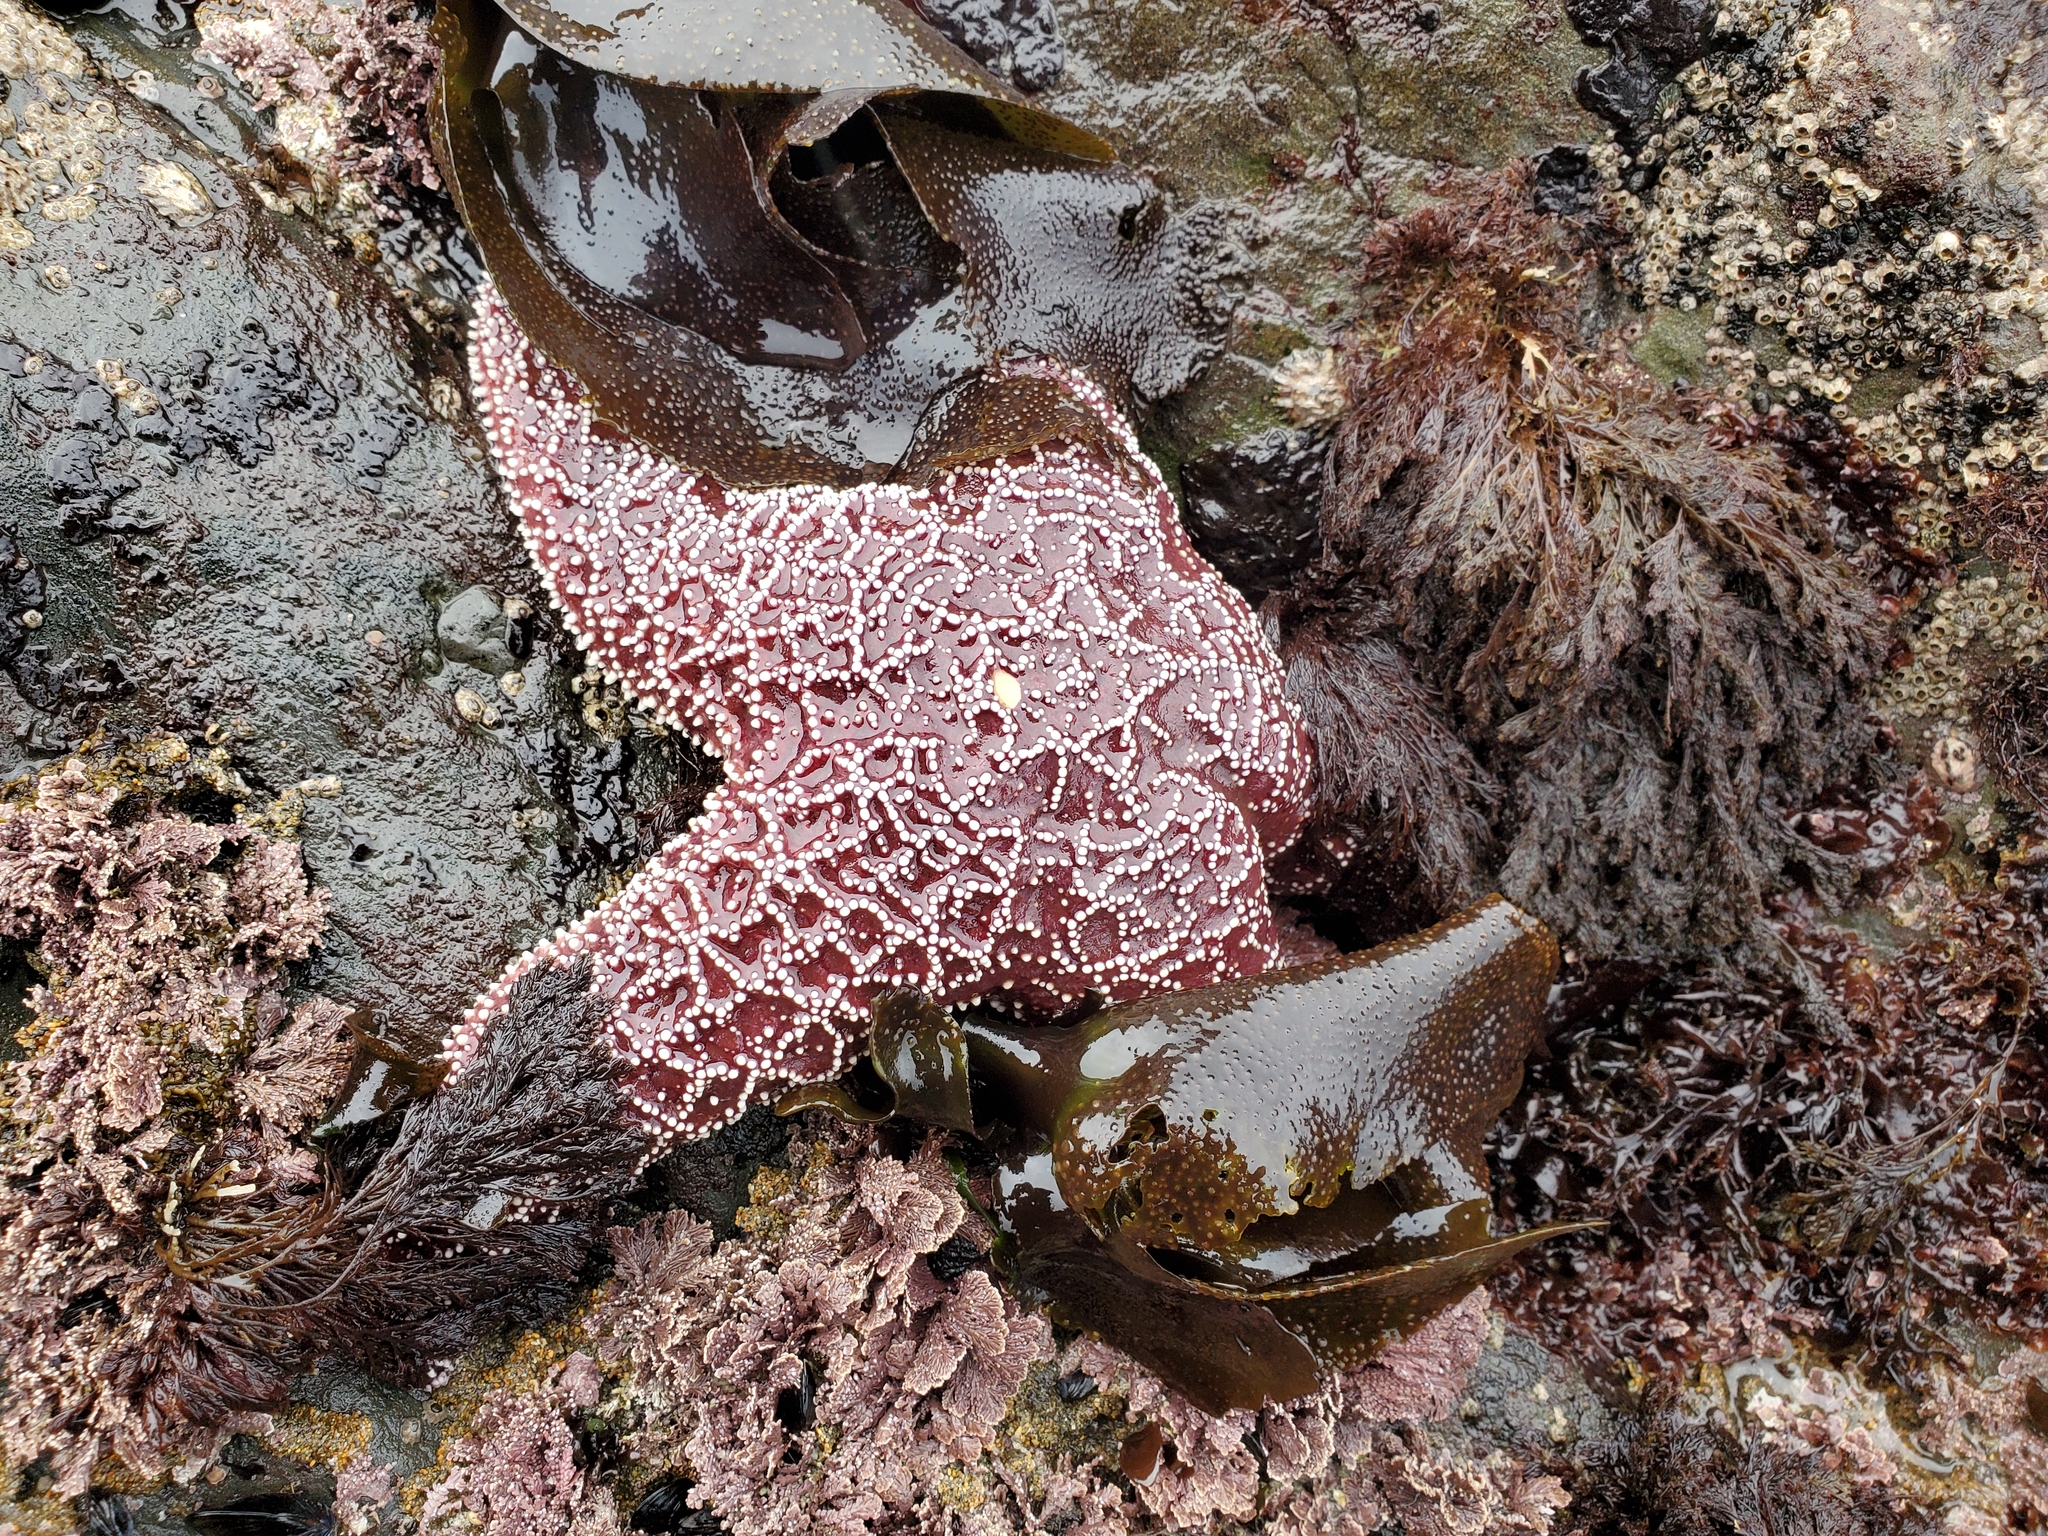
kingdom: Plantae
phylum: Rhodophyta
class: Florideophyceae
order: Gigartinales
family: Gigartinaceae
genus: Chondracanthus
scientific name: Chondracanthus exasperatus
